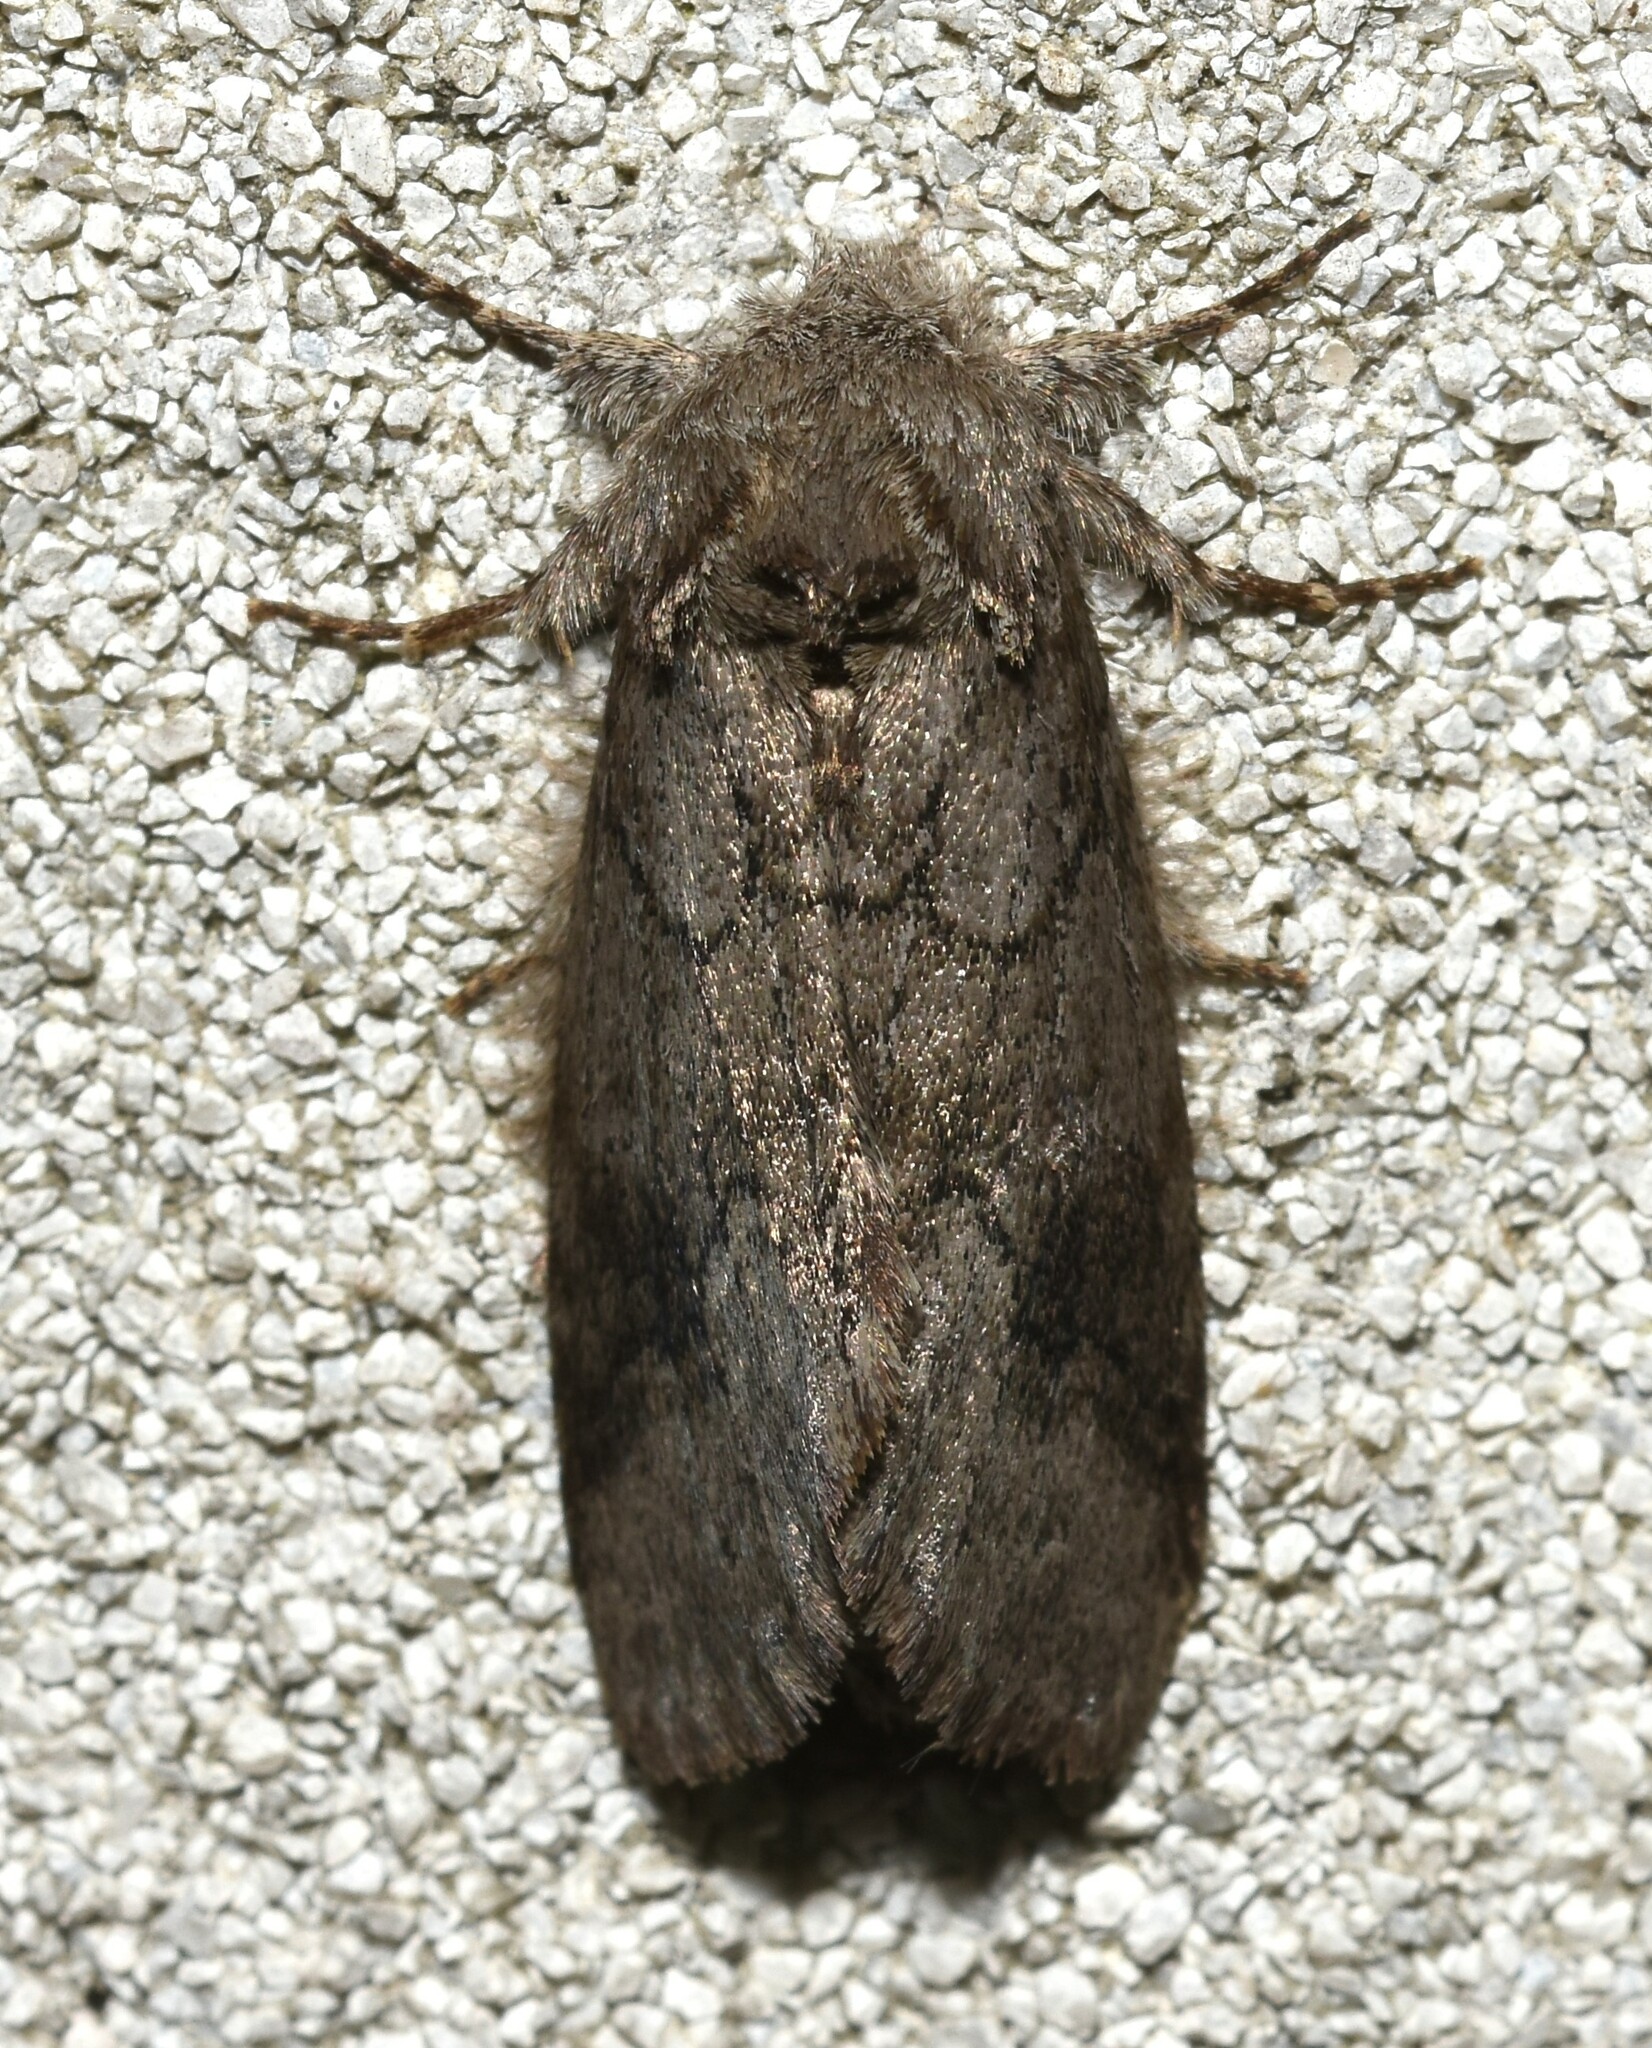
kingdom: Animalia
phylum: Arthropoda
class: Insecta
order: Lepidoptera
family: Notodontidae
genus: Lochmaeus
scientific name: Lochmaeus bilineata
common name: Double-lined prominent
